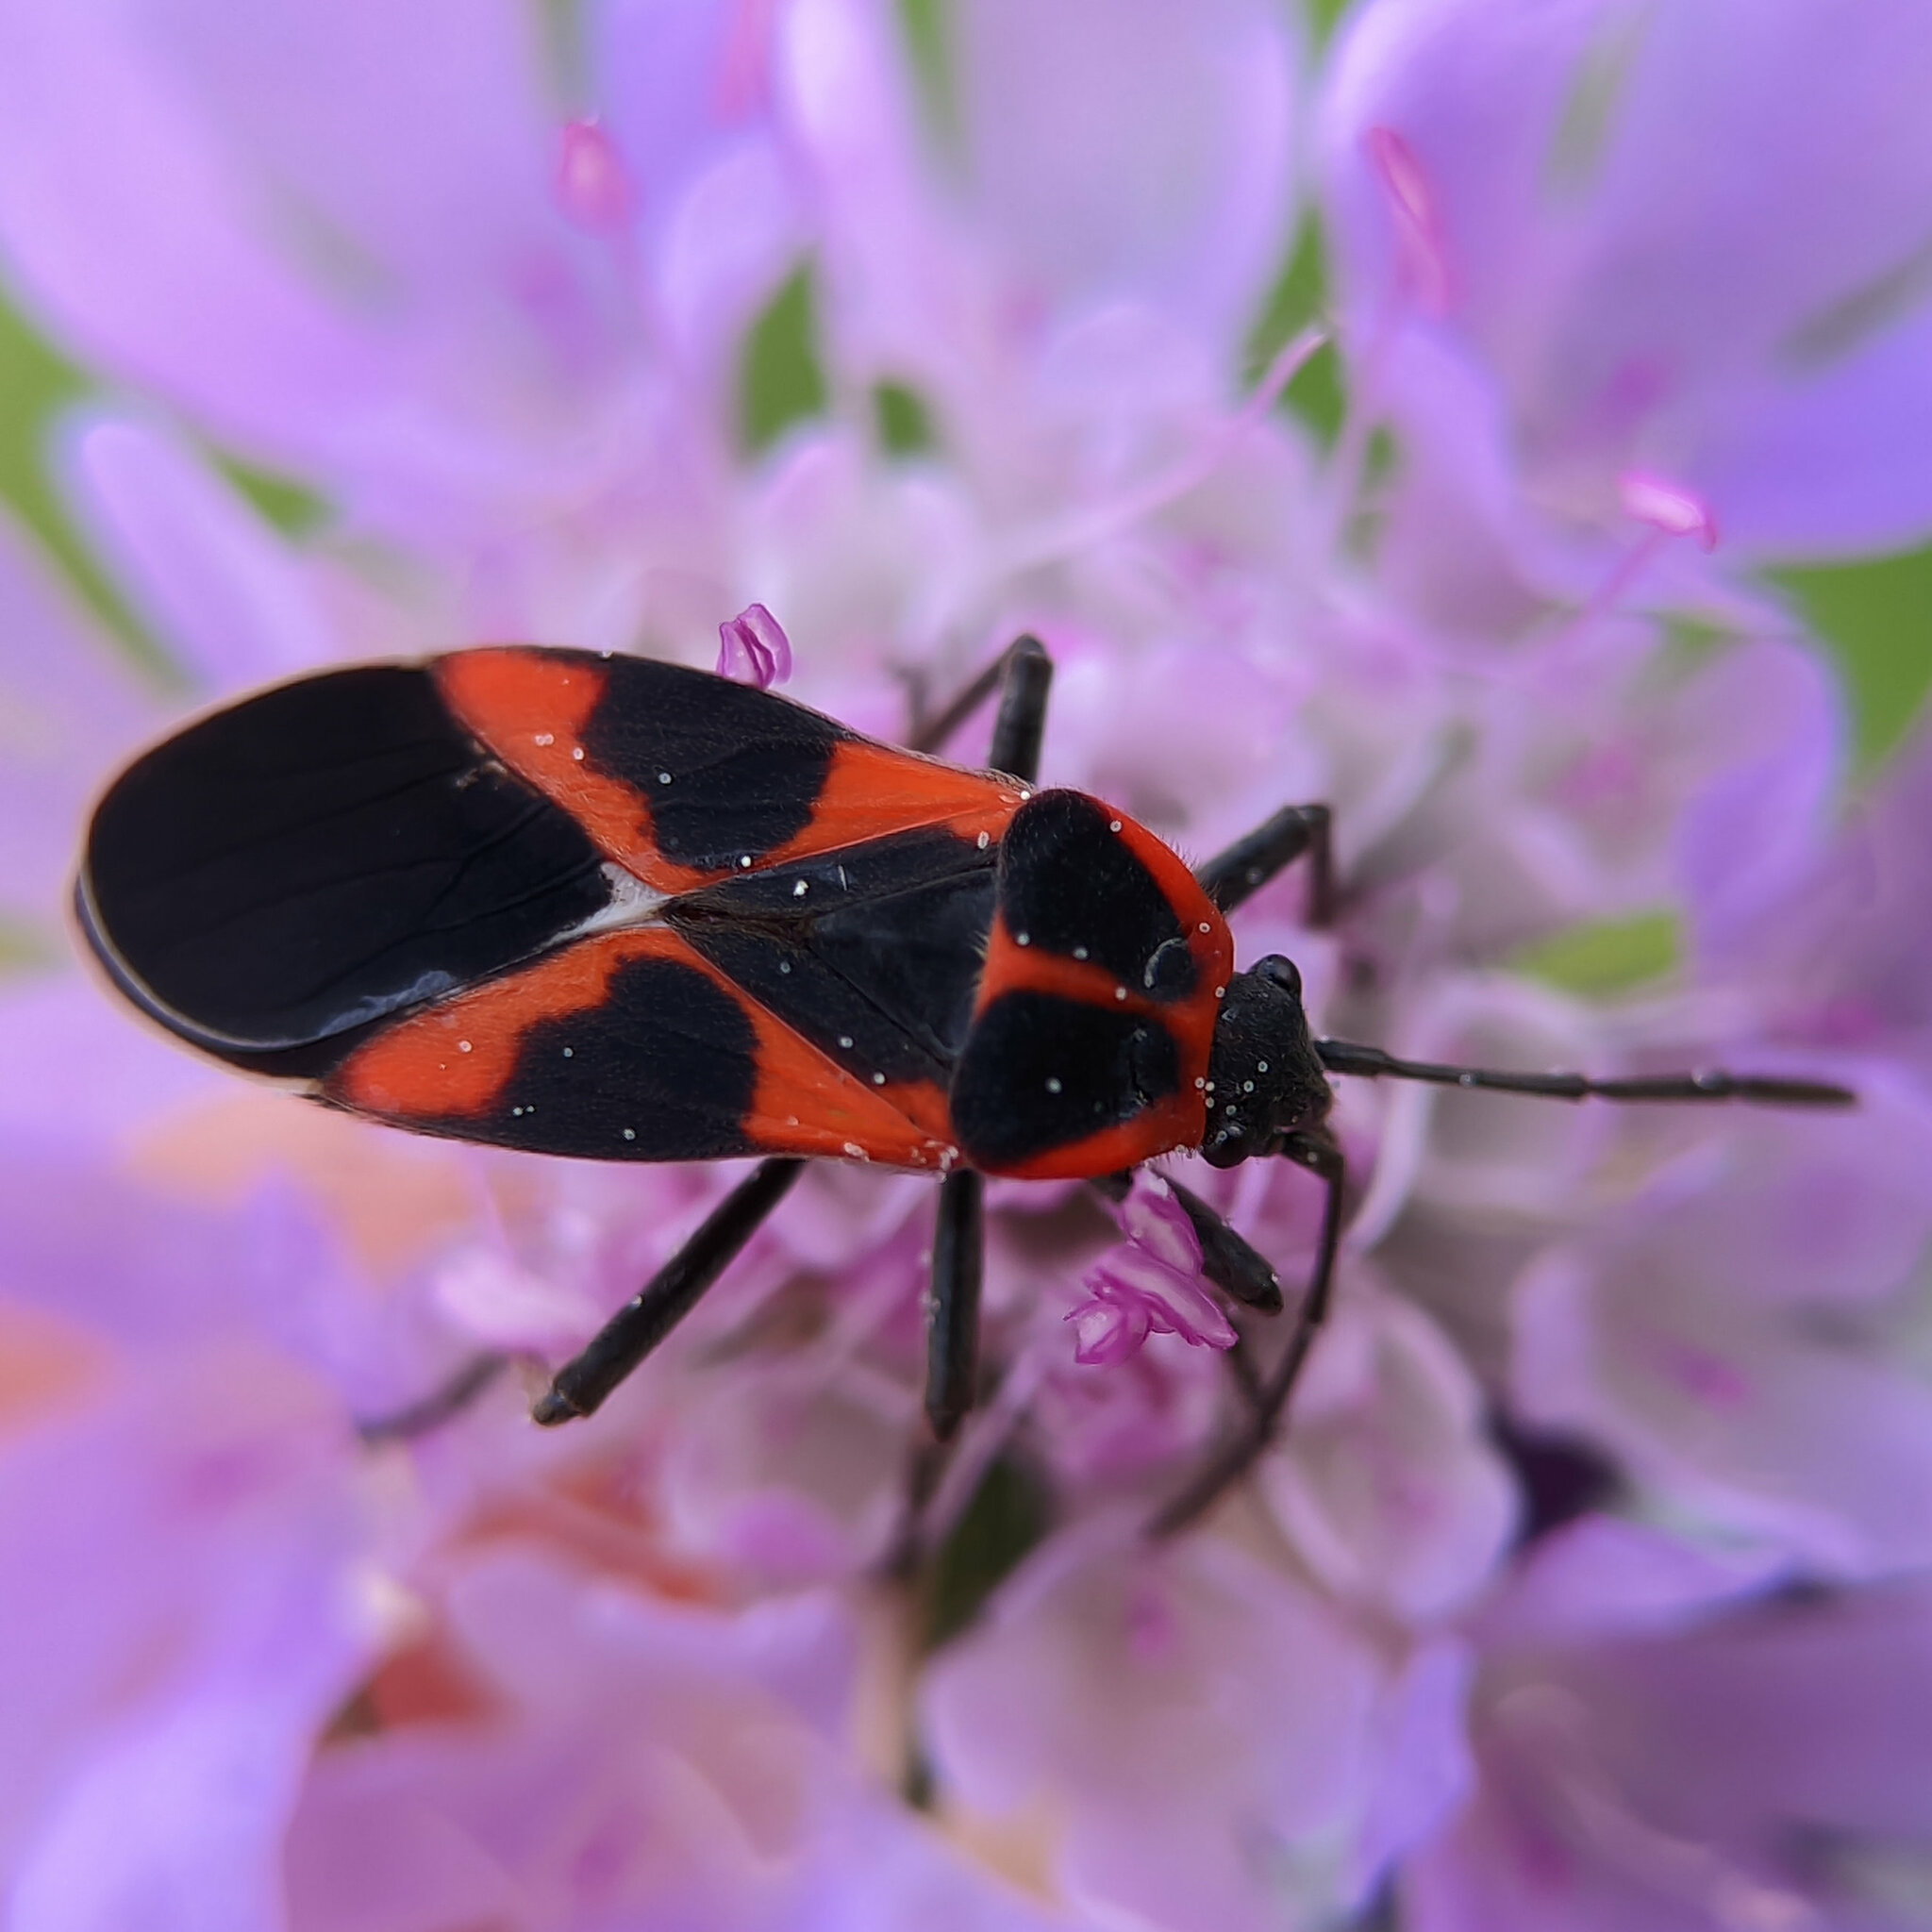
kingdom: Animalia
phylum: Arthropoda
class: Insecta
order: Hemiptera
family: Lygaeidae
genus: Tropidothorax
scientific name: Tropidothorax leucopterus
